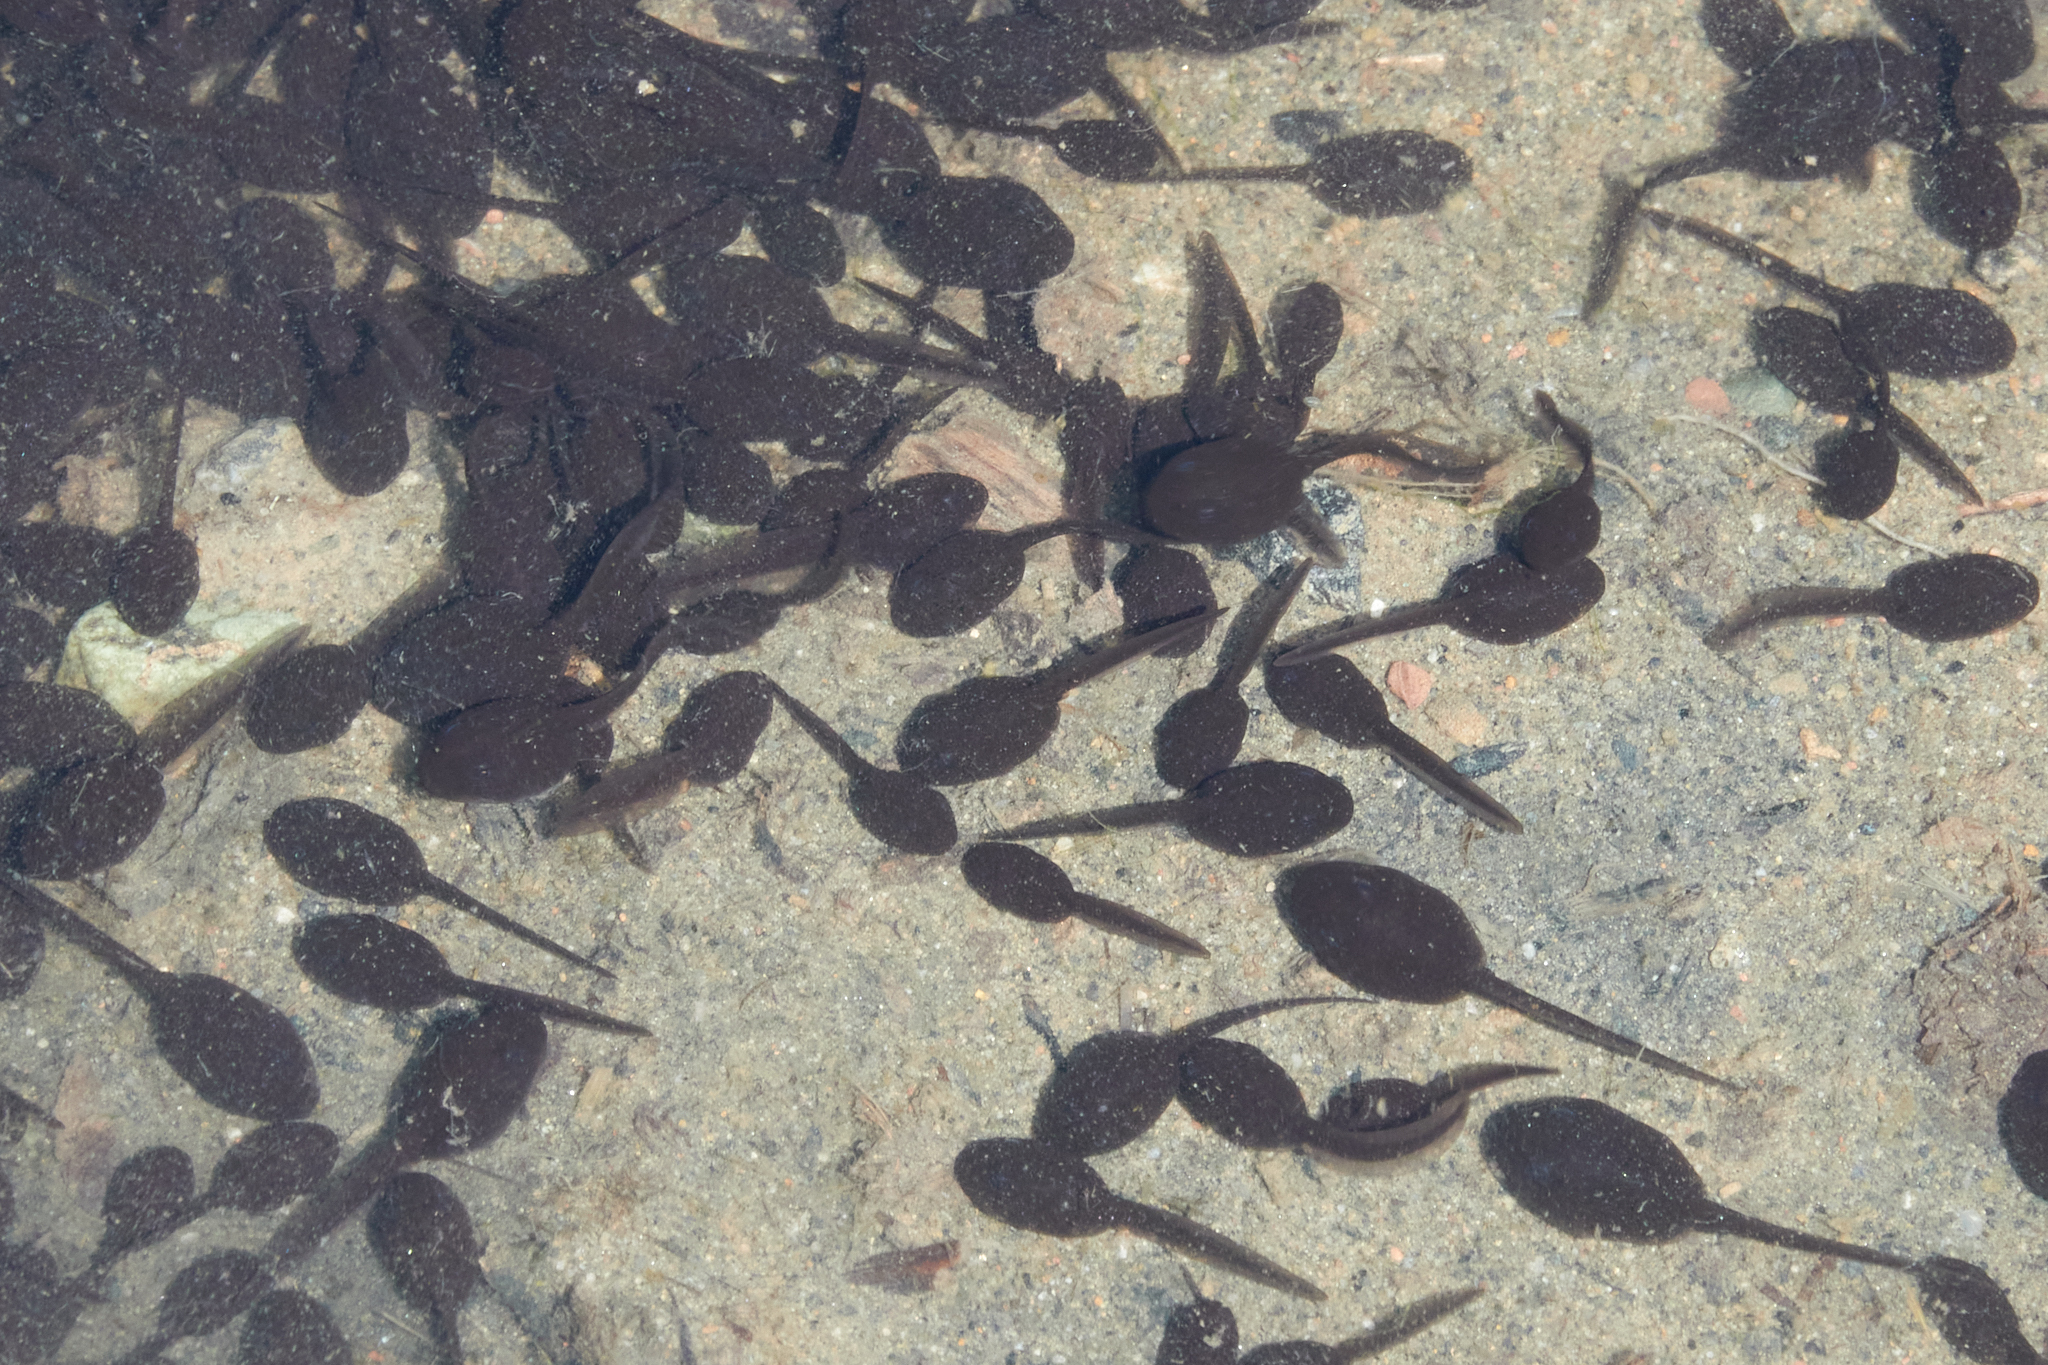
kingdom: Animalia
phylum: Chordata
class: Amphibia
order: Anura
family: Bufonidae
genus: Anaxyrus
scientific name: Anaxyrus boreas
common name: Western toad
